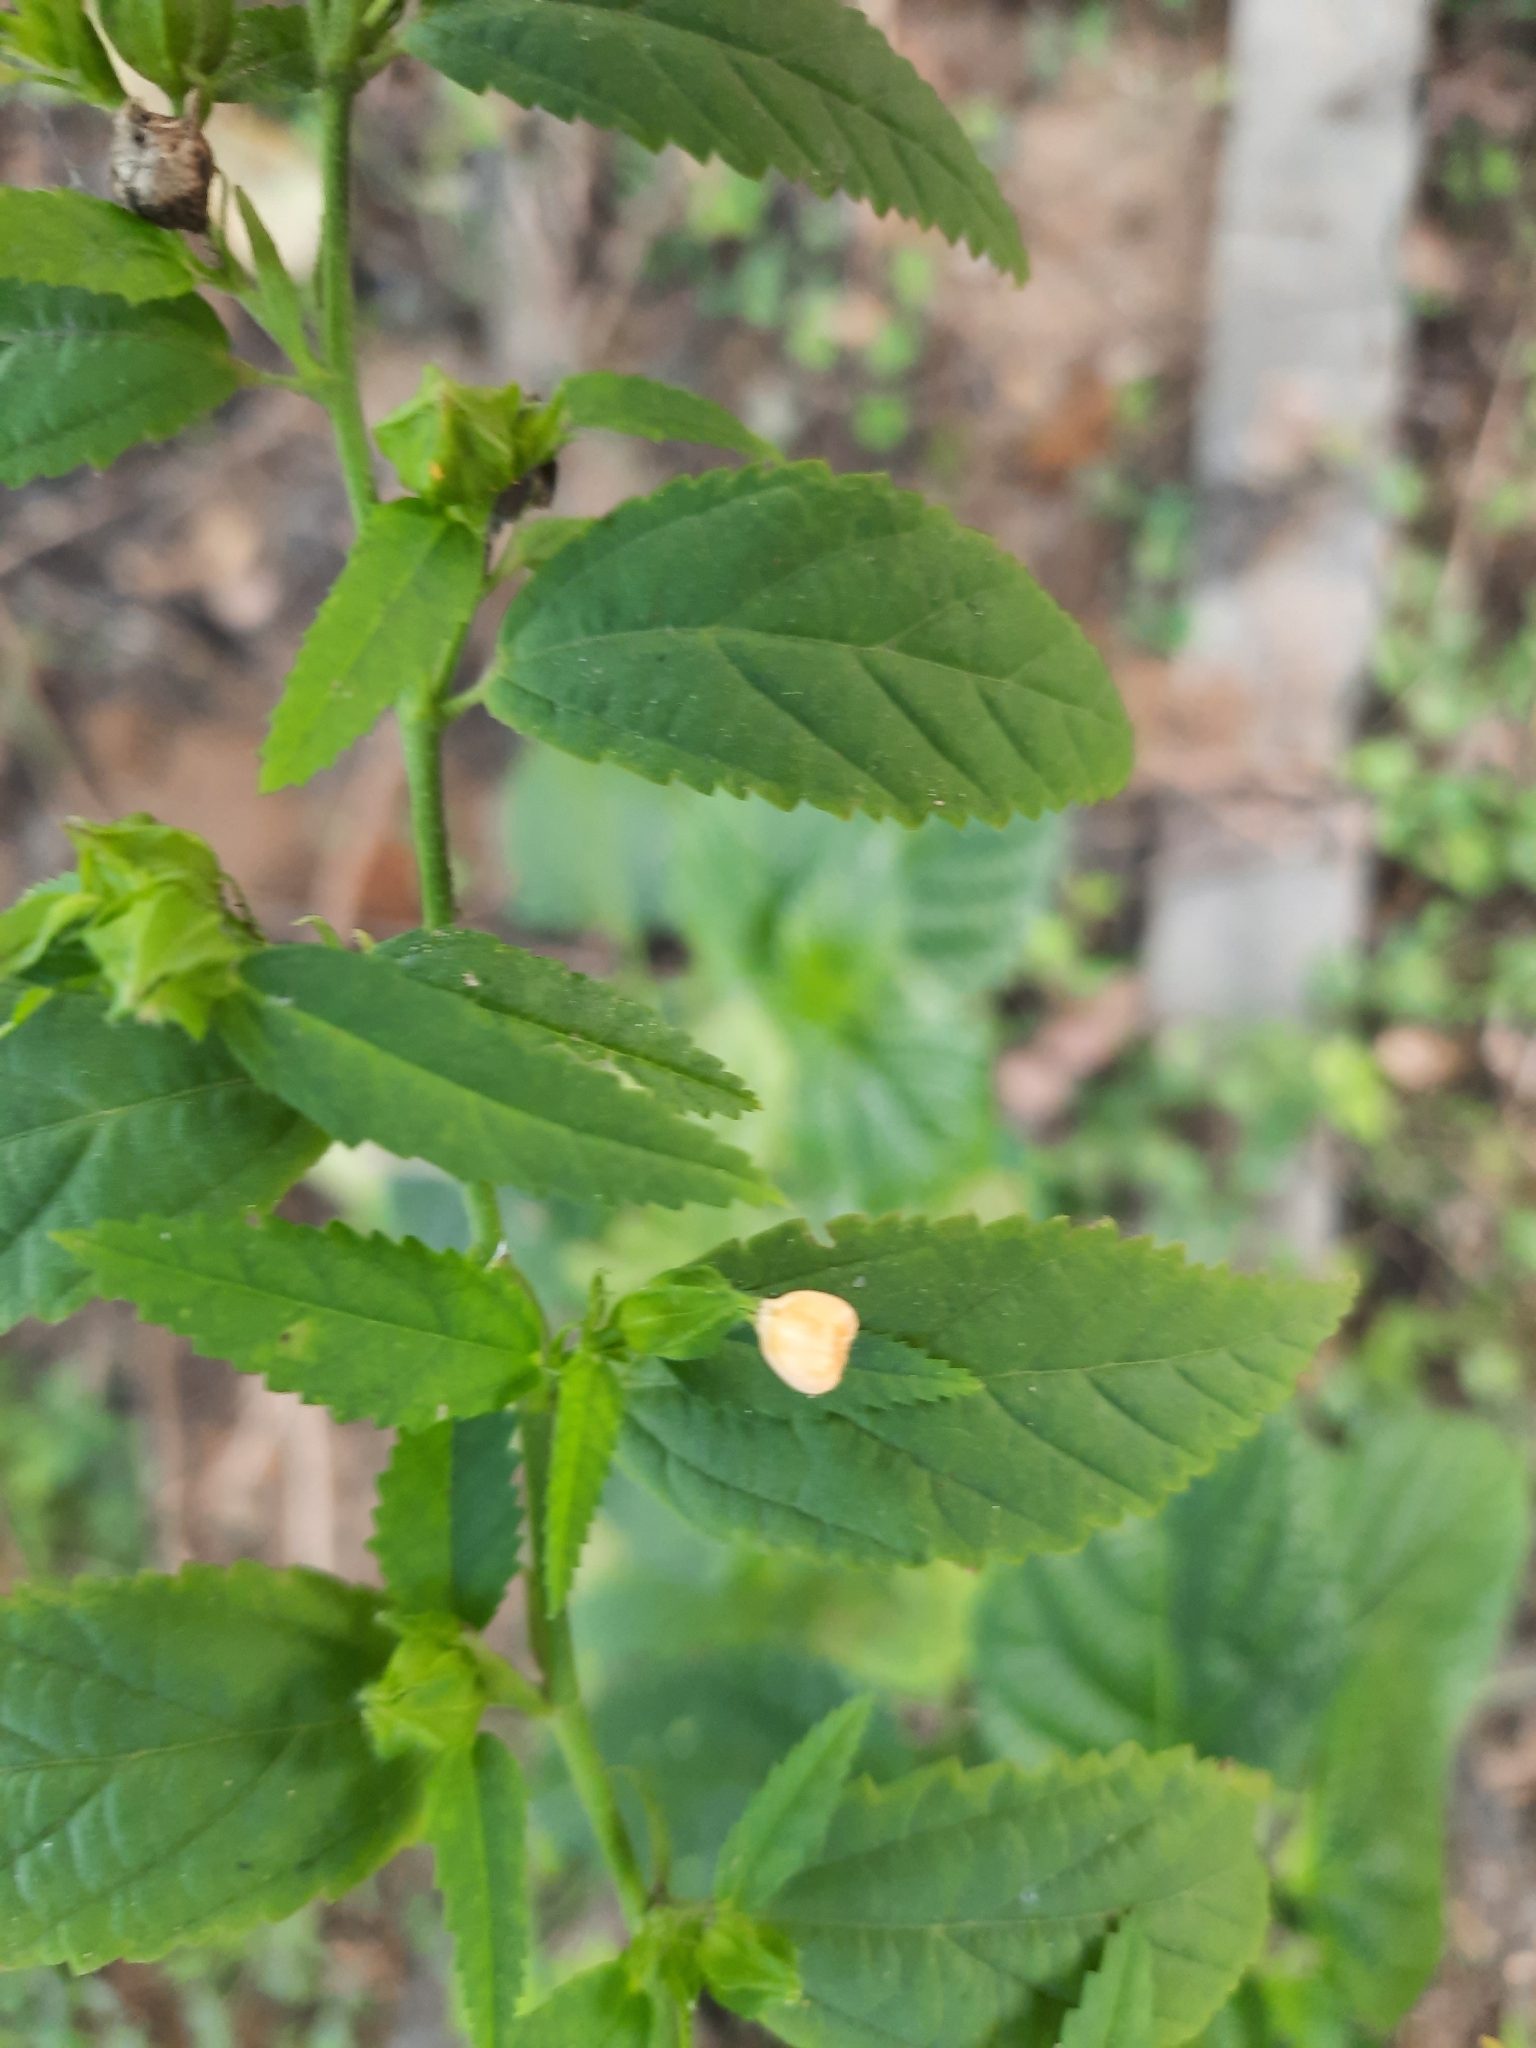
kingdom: Plantae
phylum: Tracheophyta
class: Magnoliopsida
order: Malvales
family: Malvaceae
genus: Sida
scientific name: Sida acuta
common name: Common wireweed
